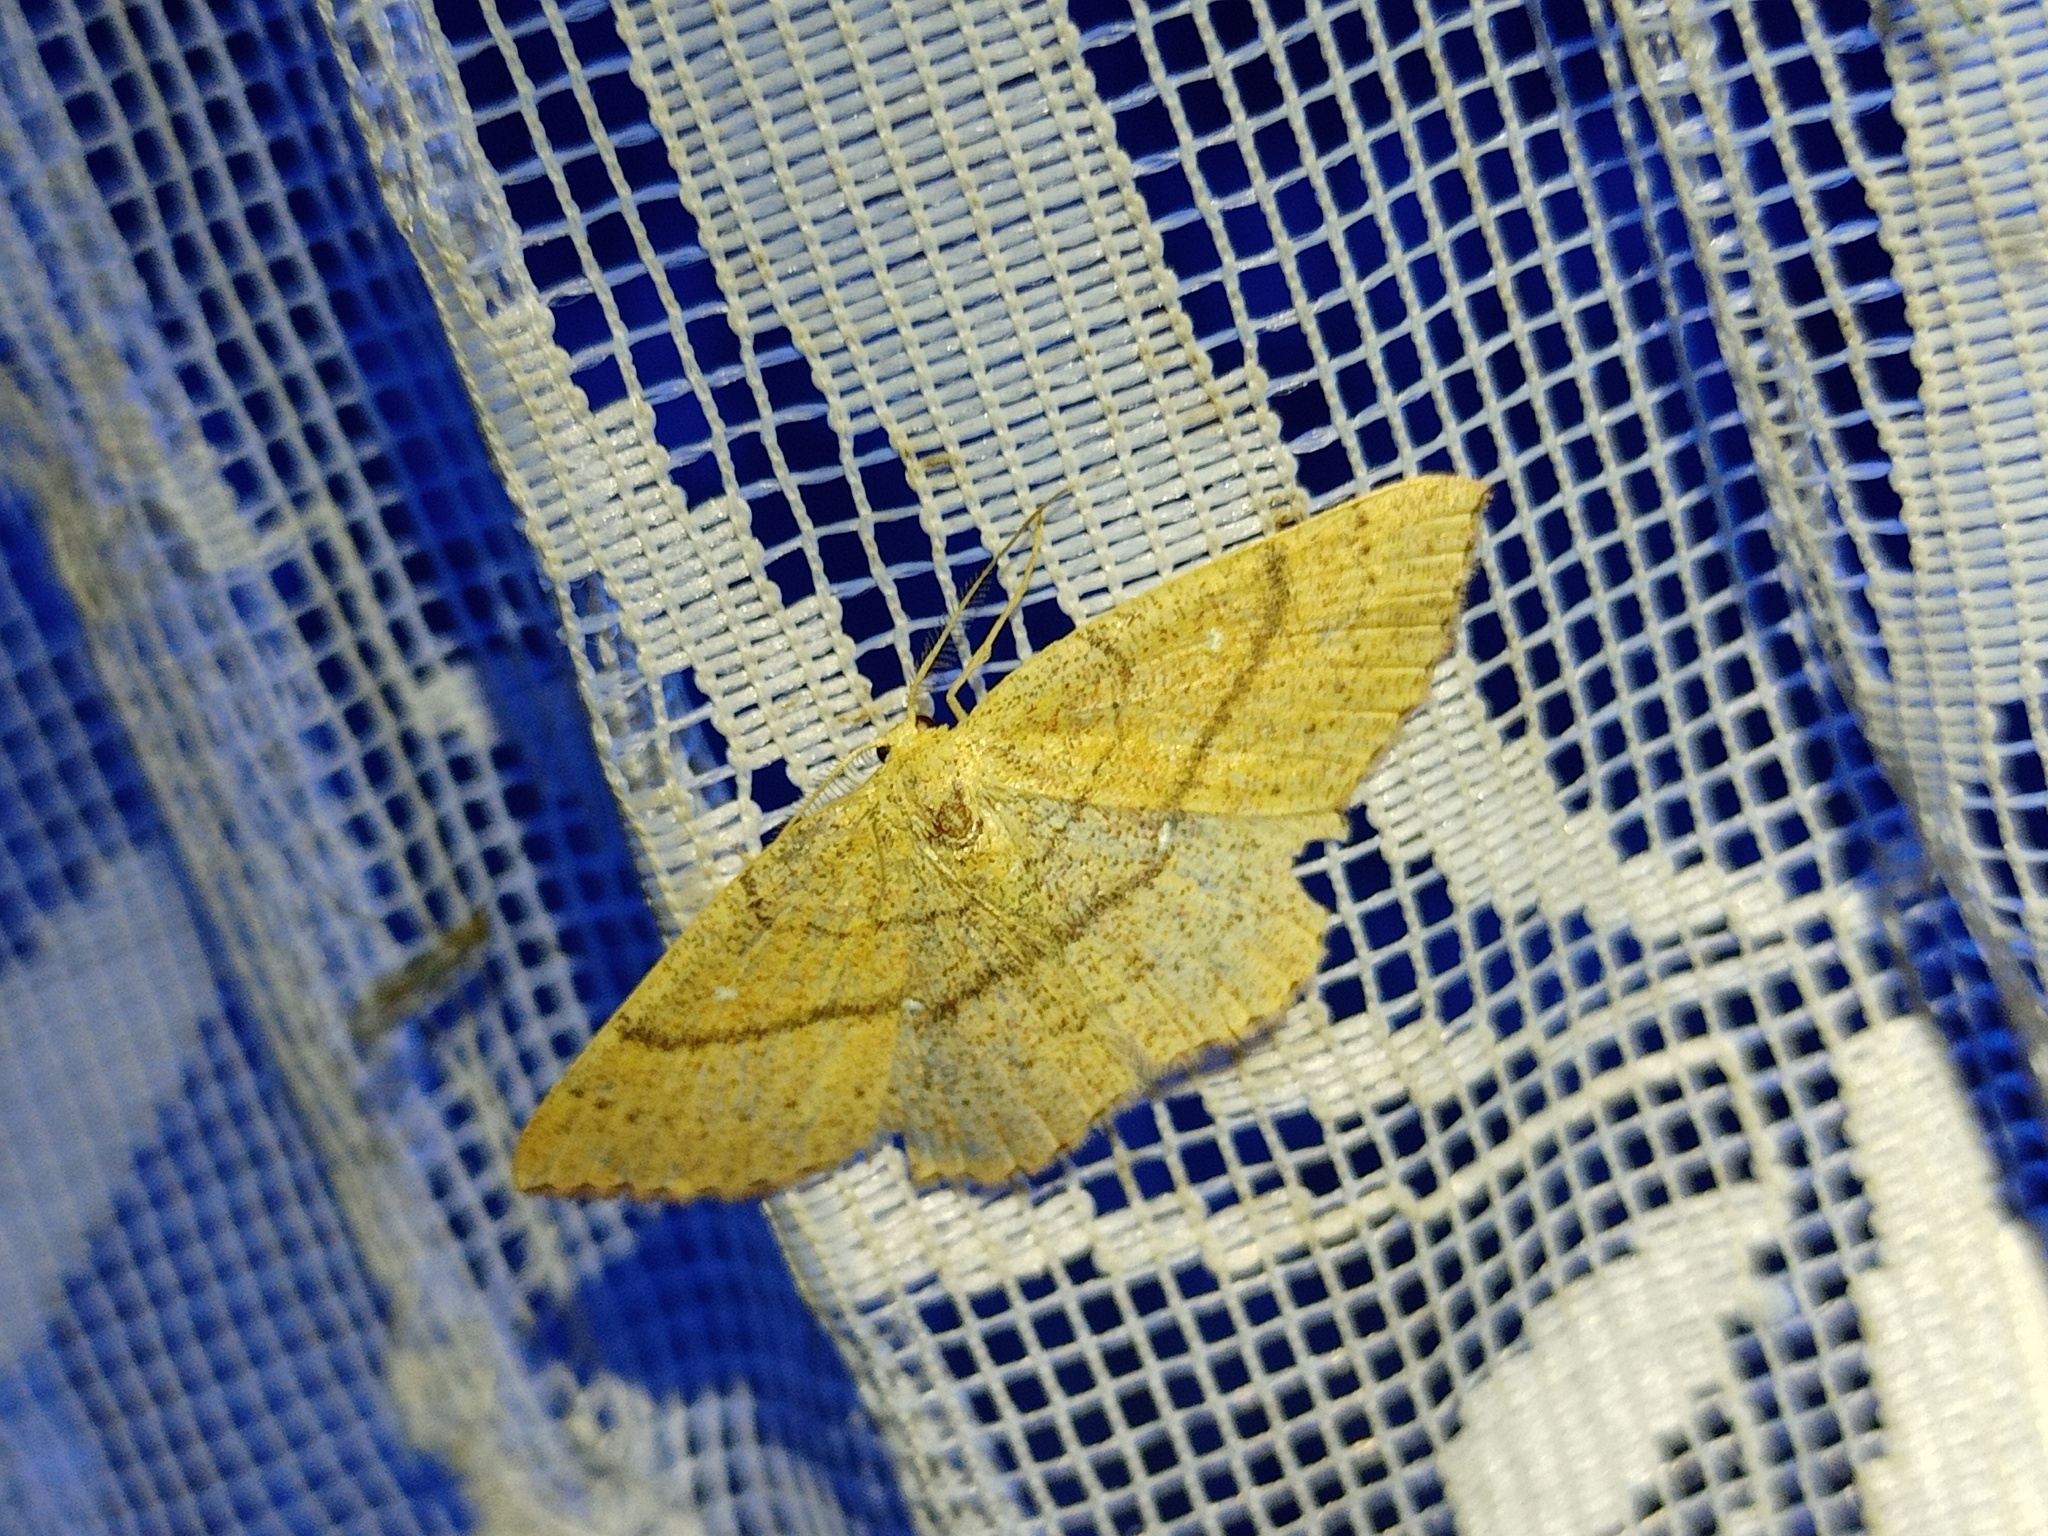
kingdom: Animalia
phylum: Arthropoda
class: Insecta
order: Lepidoptera
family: Geometridae
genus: Cyclophora
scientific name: Cyclophora ruficiliaria
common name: Jersey mocha
